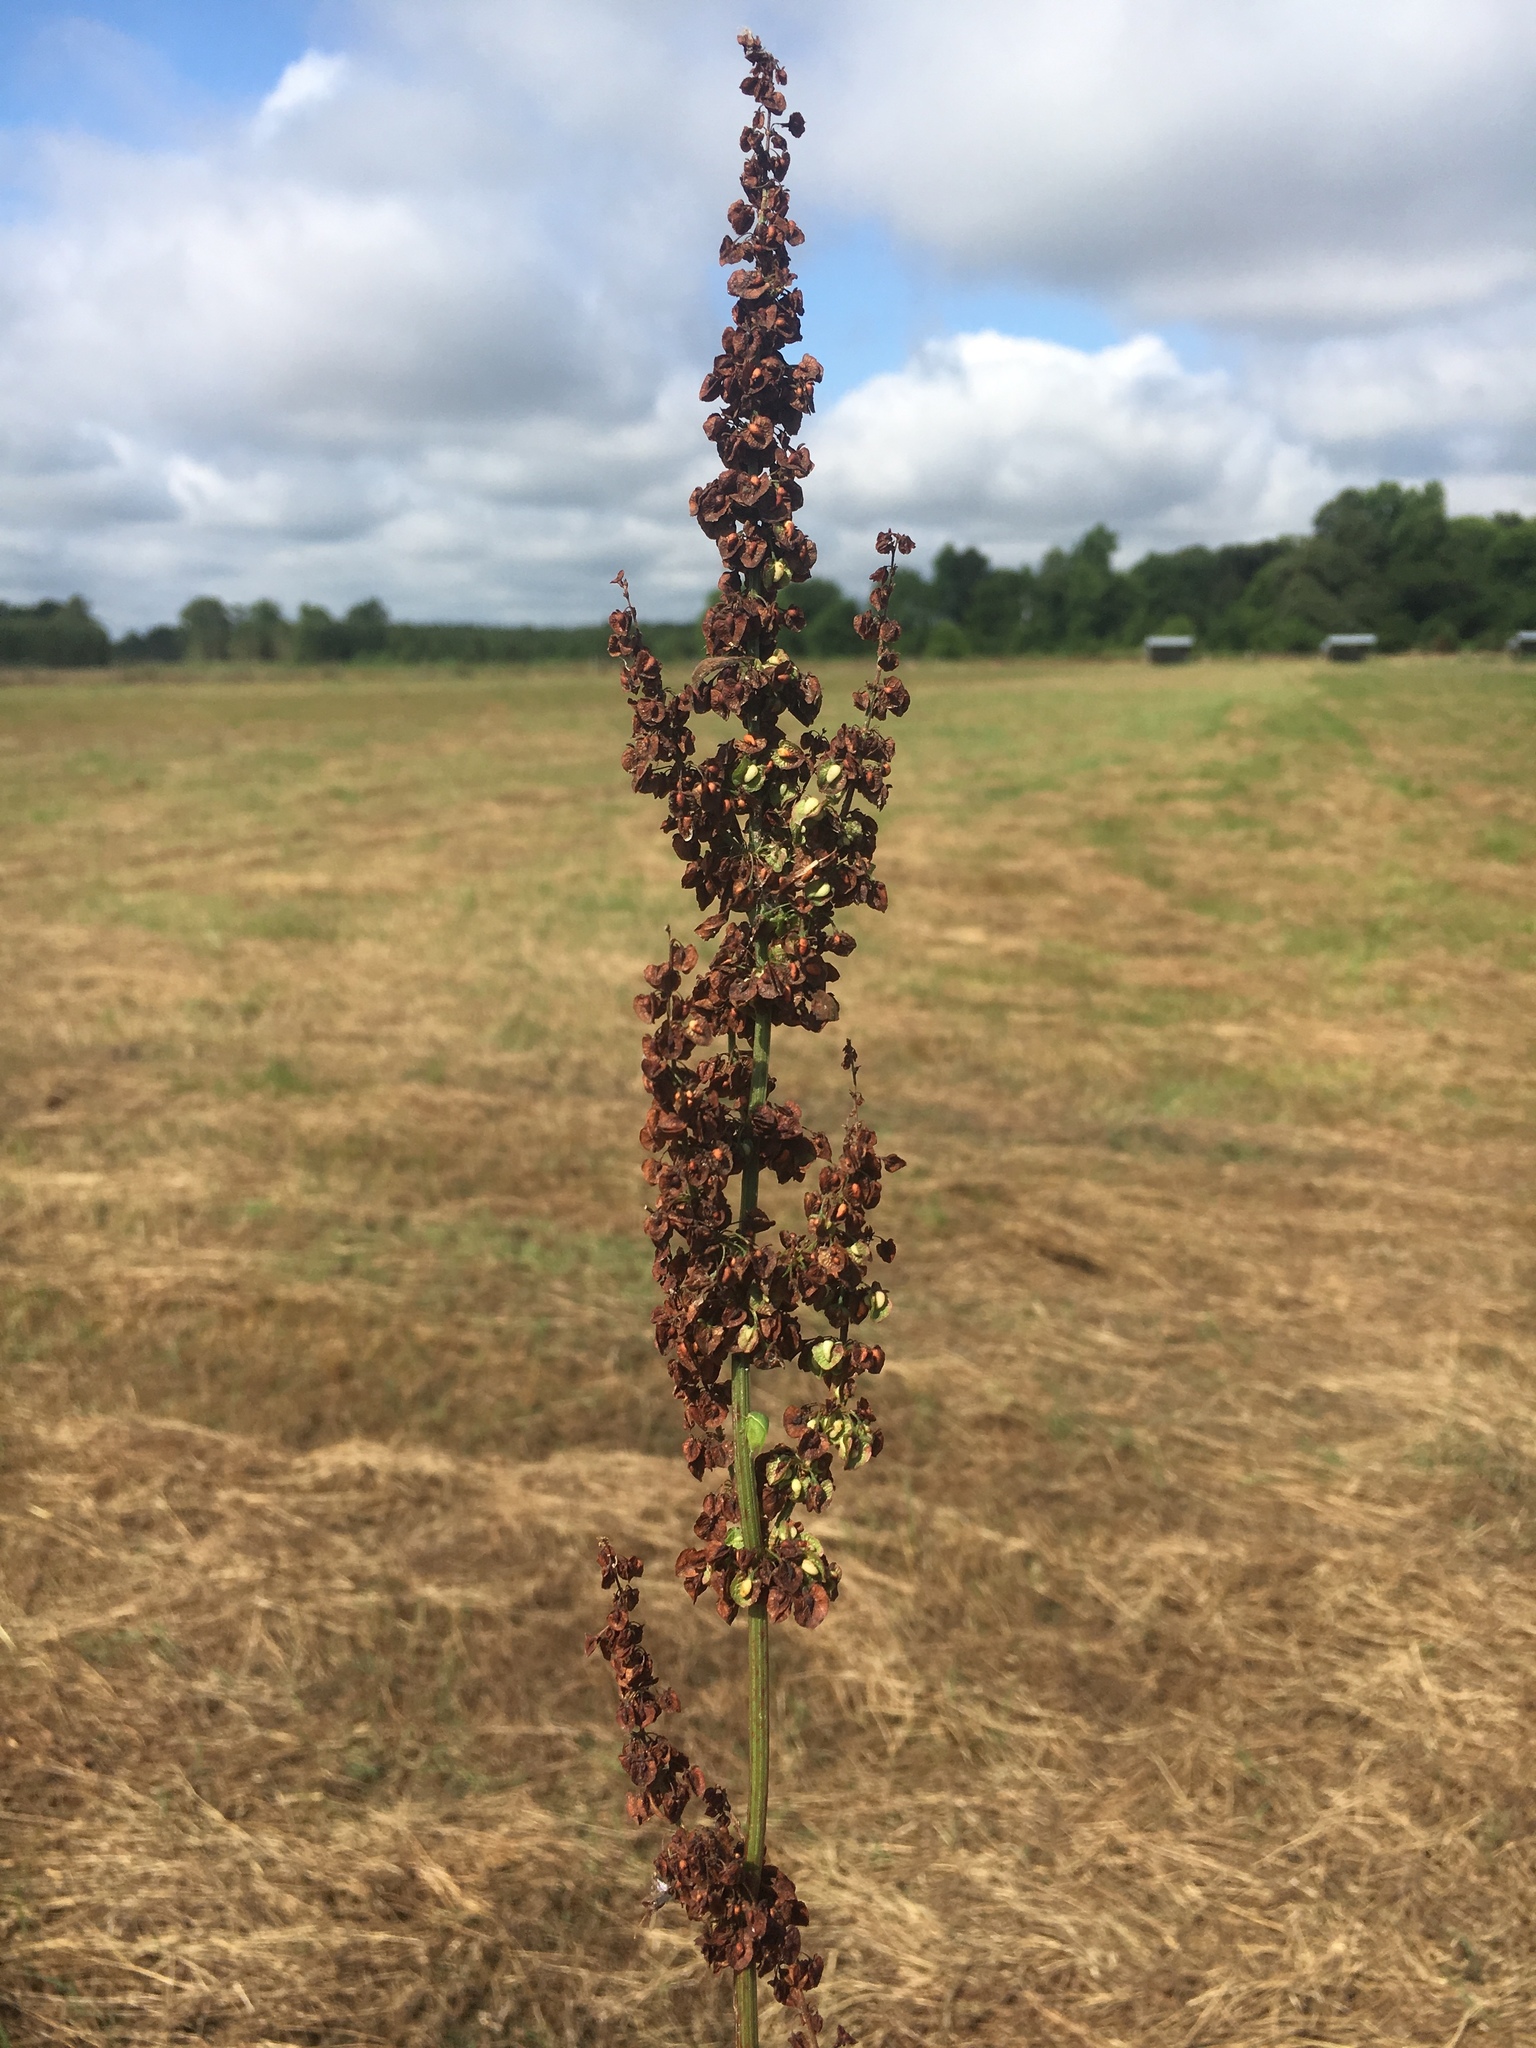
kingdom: Plantae
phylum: Tracheophyta
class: Magnoliopsida
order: Caryophyllales
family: Polygonaceae
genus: Rumex
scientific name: Rumex crispus
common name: Curled dock
